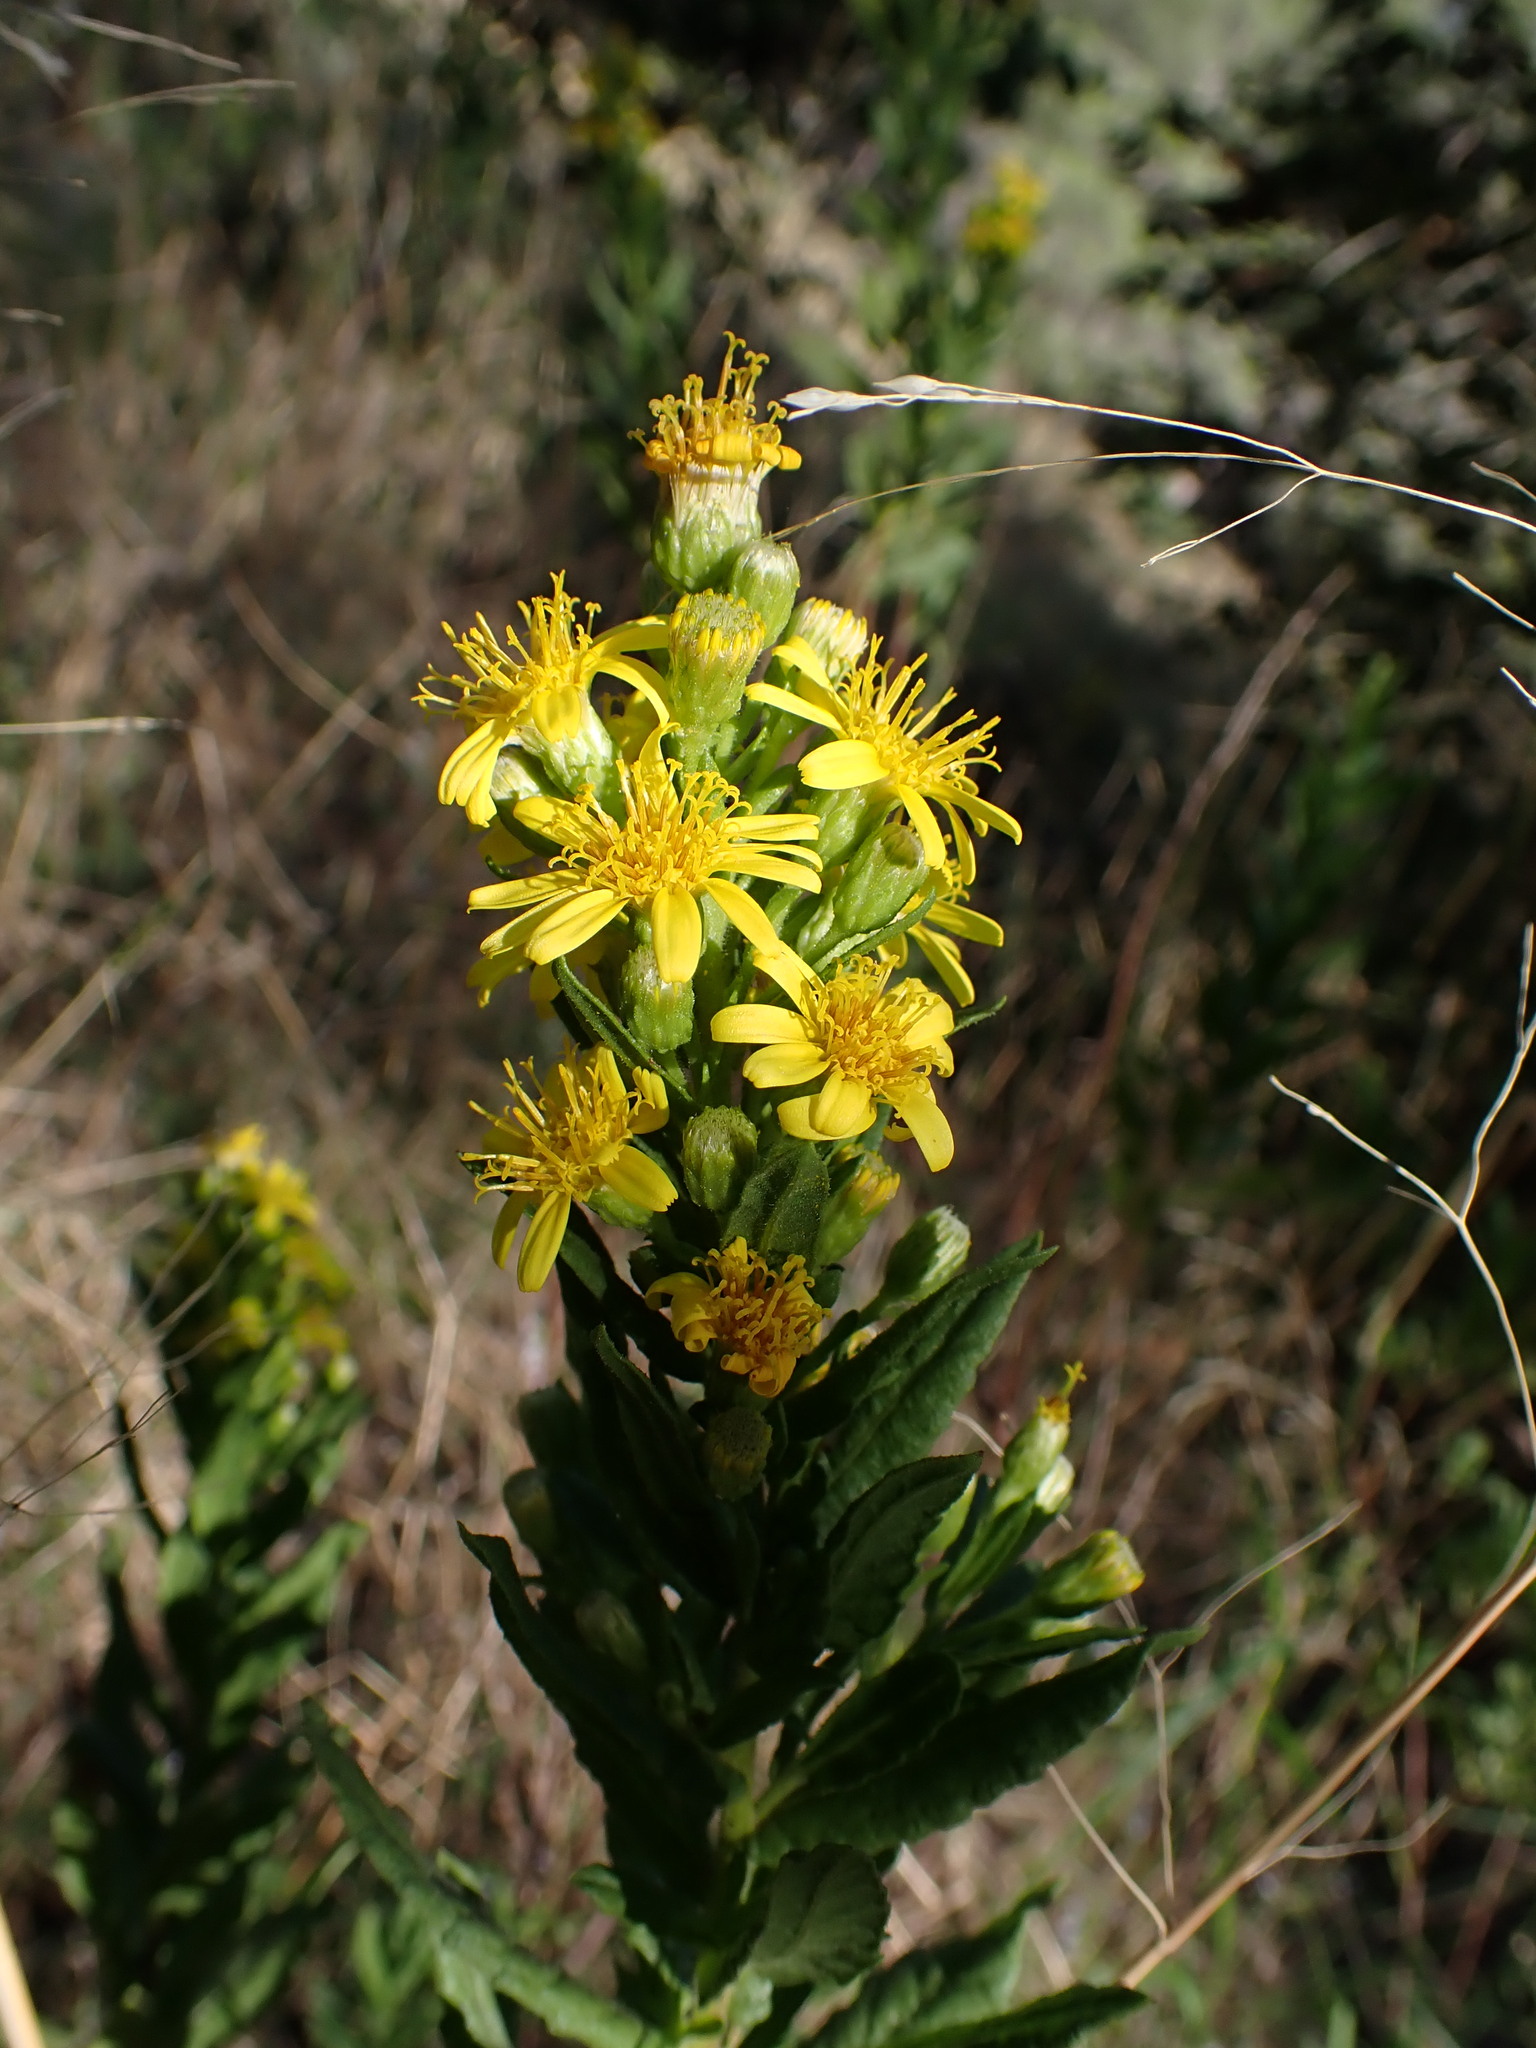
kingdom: Plantae
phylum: Tracheophyta
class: Magnoliopsida
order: Asterales
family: Asteraceae
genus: Dittrichia
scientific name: Dittrichia viscosa
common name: Woody fleabane
